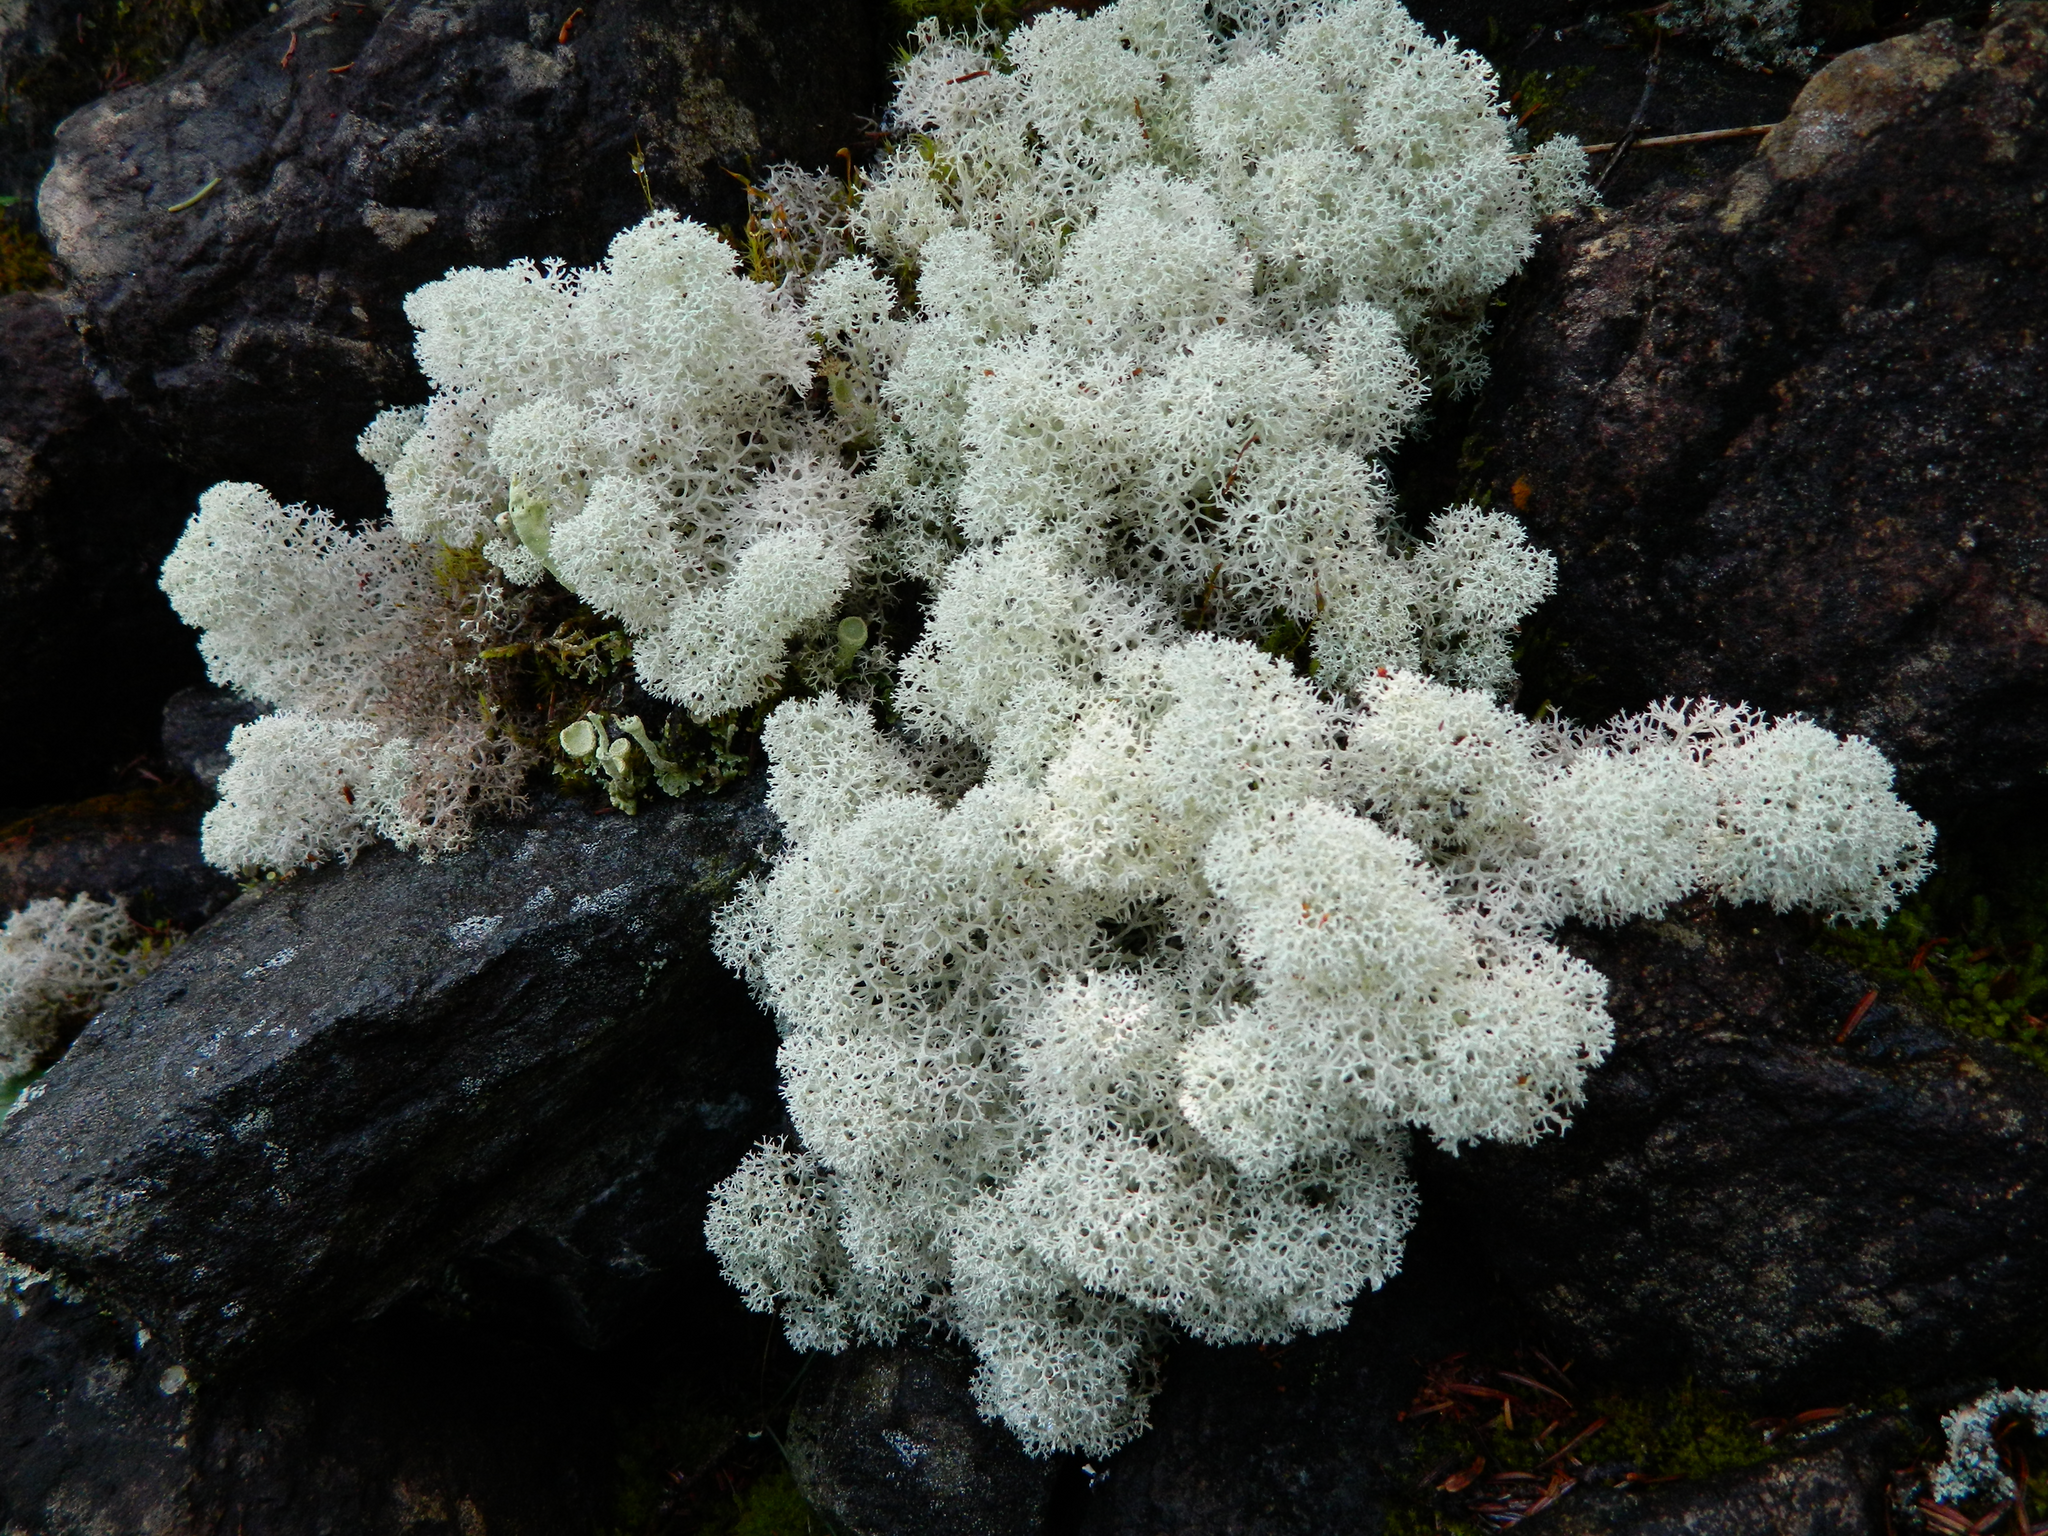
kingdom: Fungi
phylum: Ascomycota
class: Lecanoromycetes
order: Lecanorales
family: Cladoniaceae
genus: Cladonia
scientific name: Cladonia stellaris
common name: Star-tipped reindeer lichen
